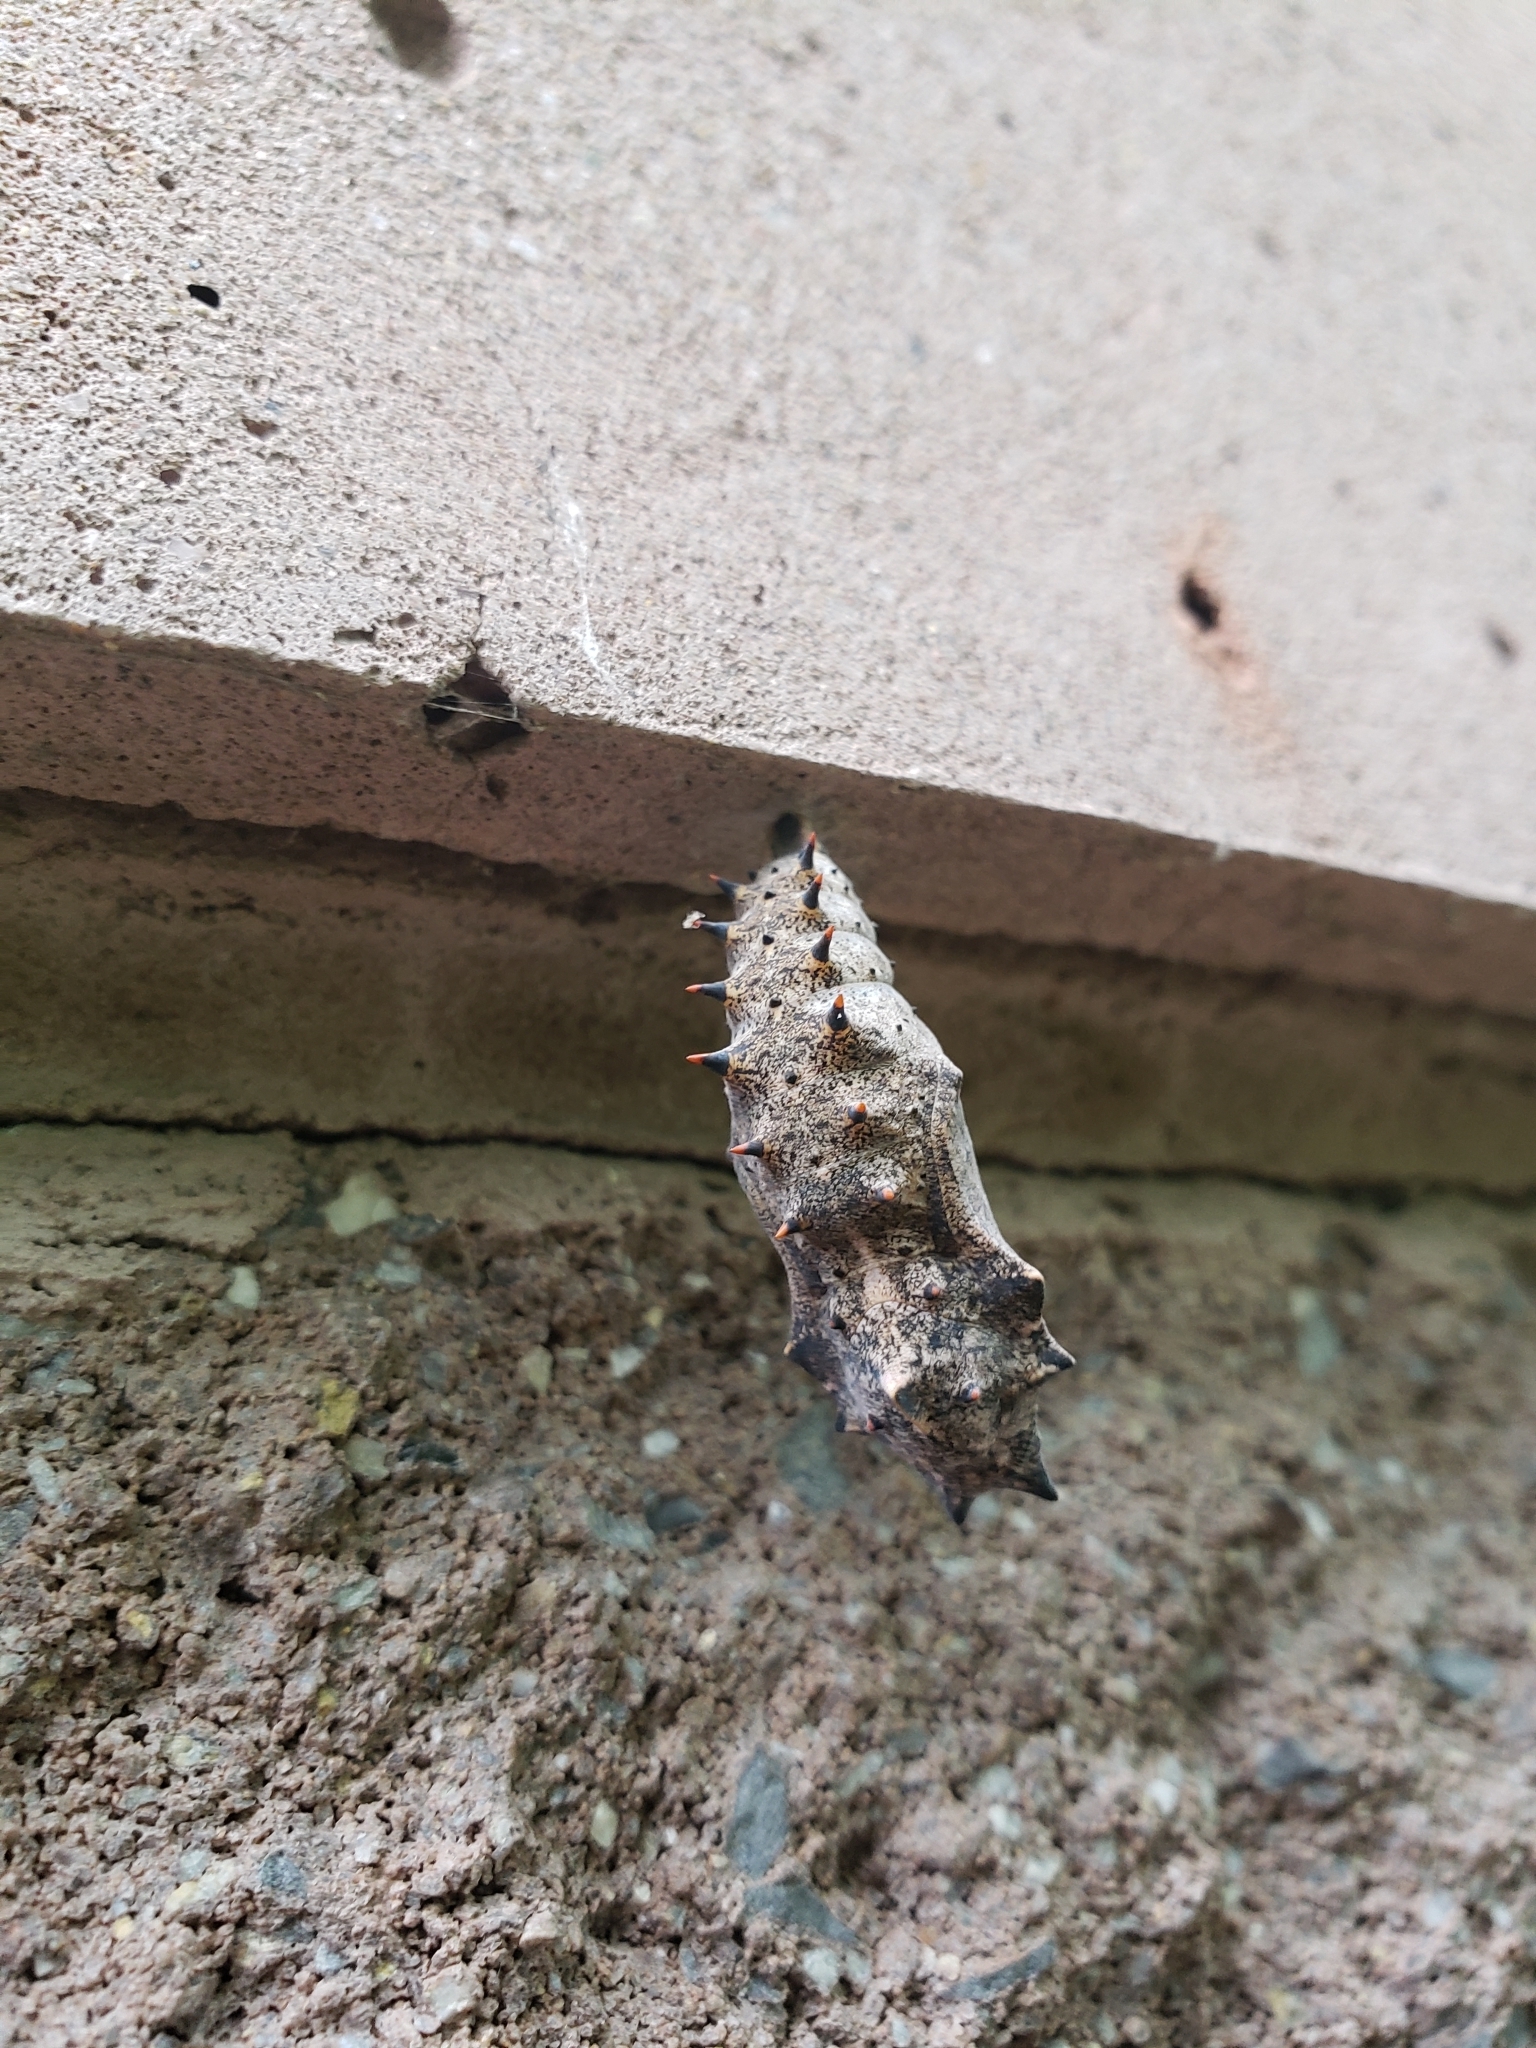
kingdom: Animalia
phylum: Arthropoda
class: Insecta
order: Lepidoptera
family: Nymphalidae
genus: Nymphalis
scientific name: Nymphalis antiopa
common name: Camberwell beauty
